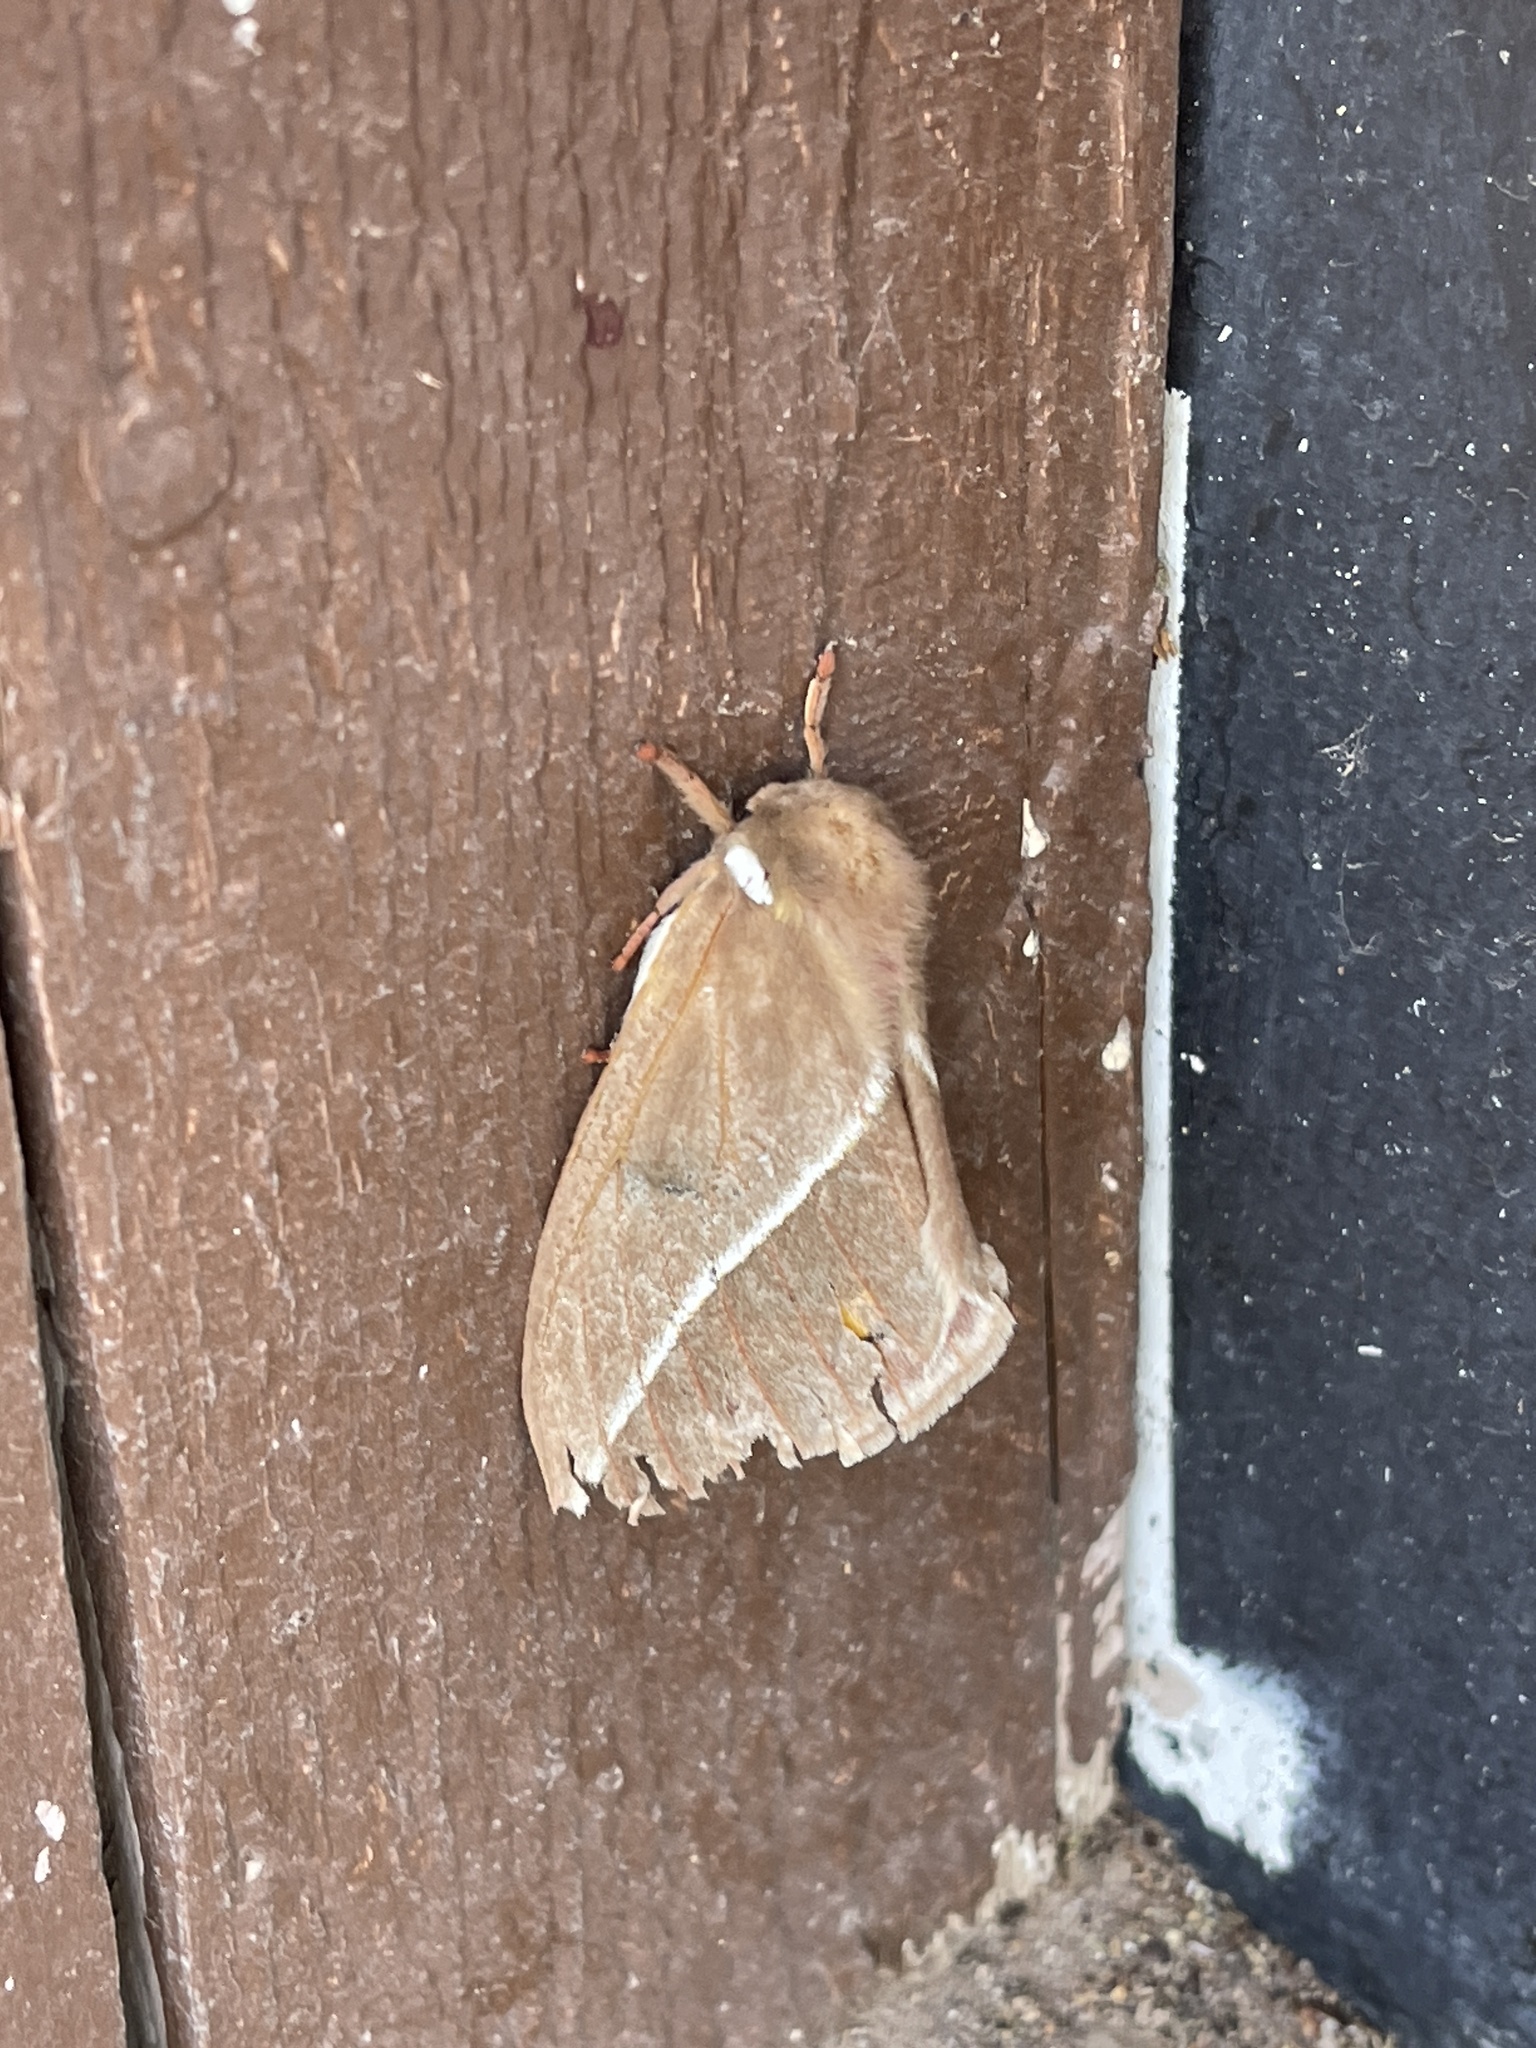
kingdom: Animalia
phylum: Arthropoda
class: Insecta
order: Lepidoptera
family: Saturniidae
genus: Automeris
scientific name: Automeris zephyria
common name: Zephyr eyed silkmoth
